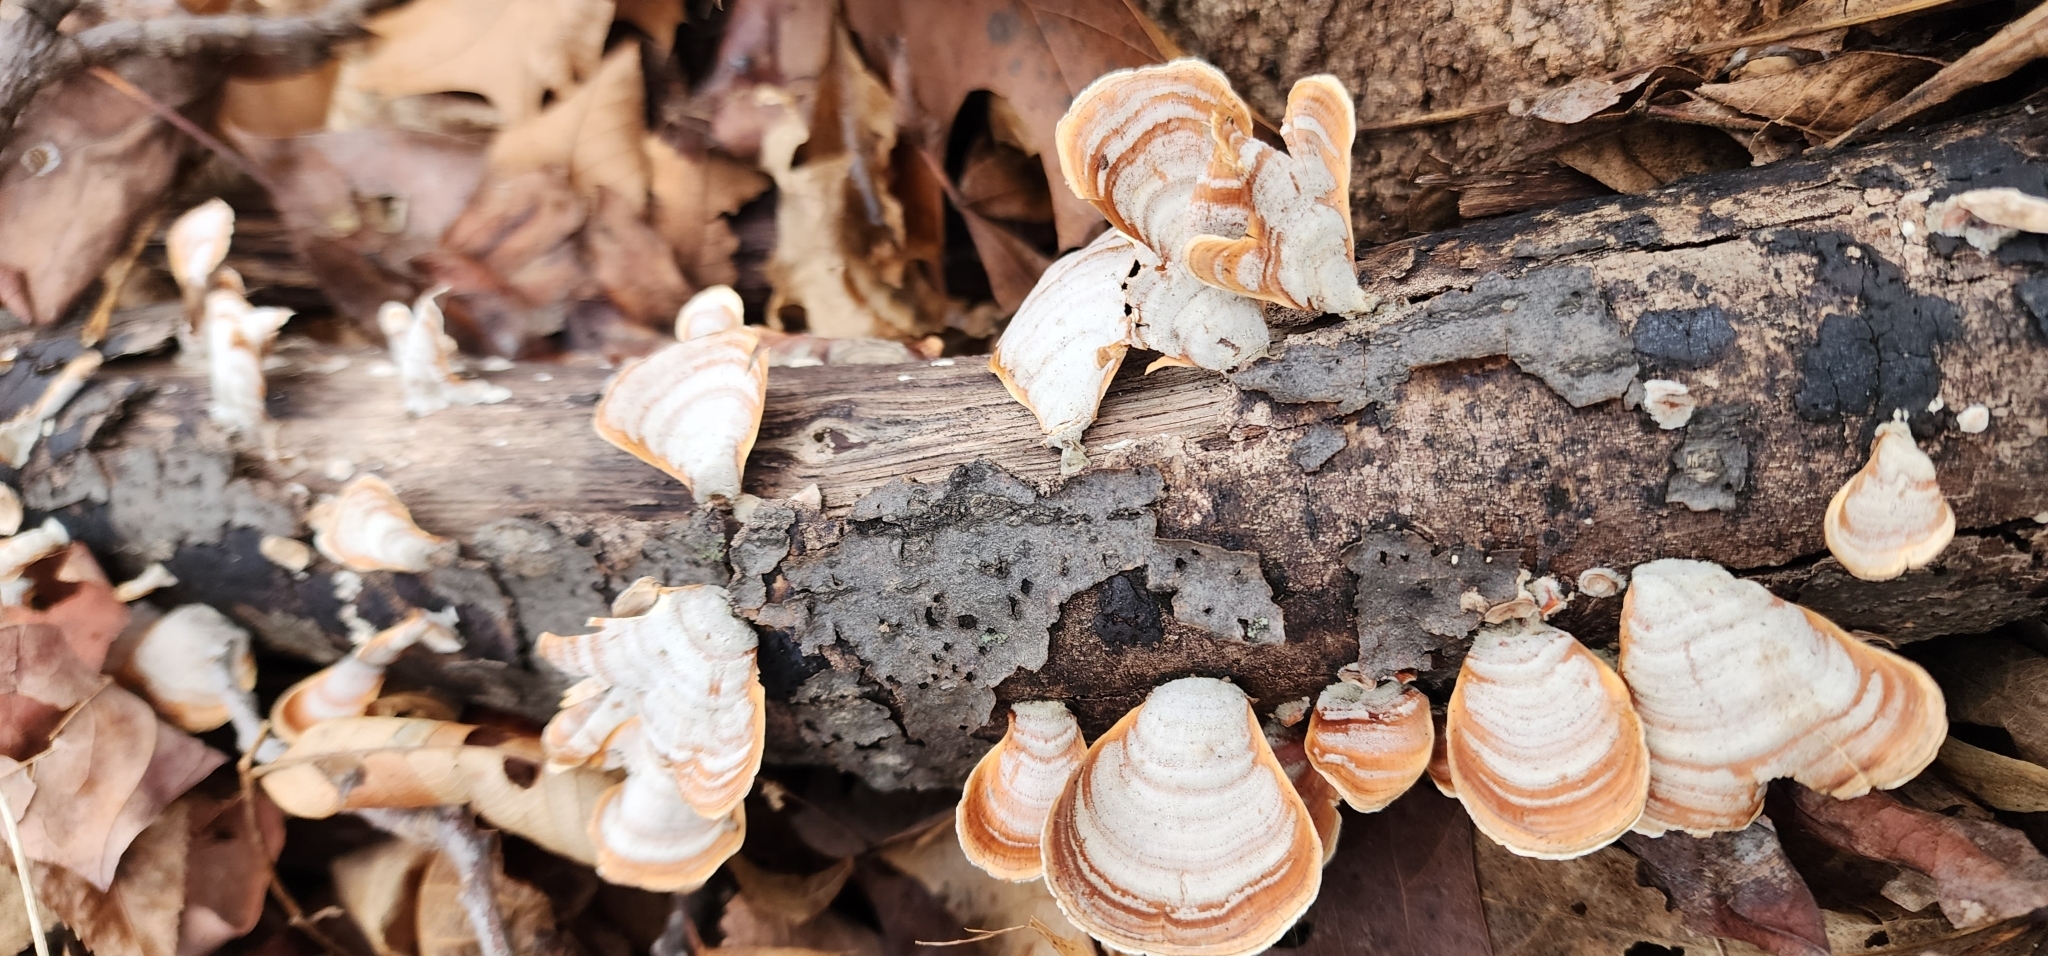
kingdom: Fungi
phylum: Basidiomycota
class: Agaricomycetes
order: Russulales
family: Stereaceae
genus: Stereum
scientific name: Stereum lobatum
